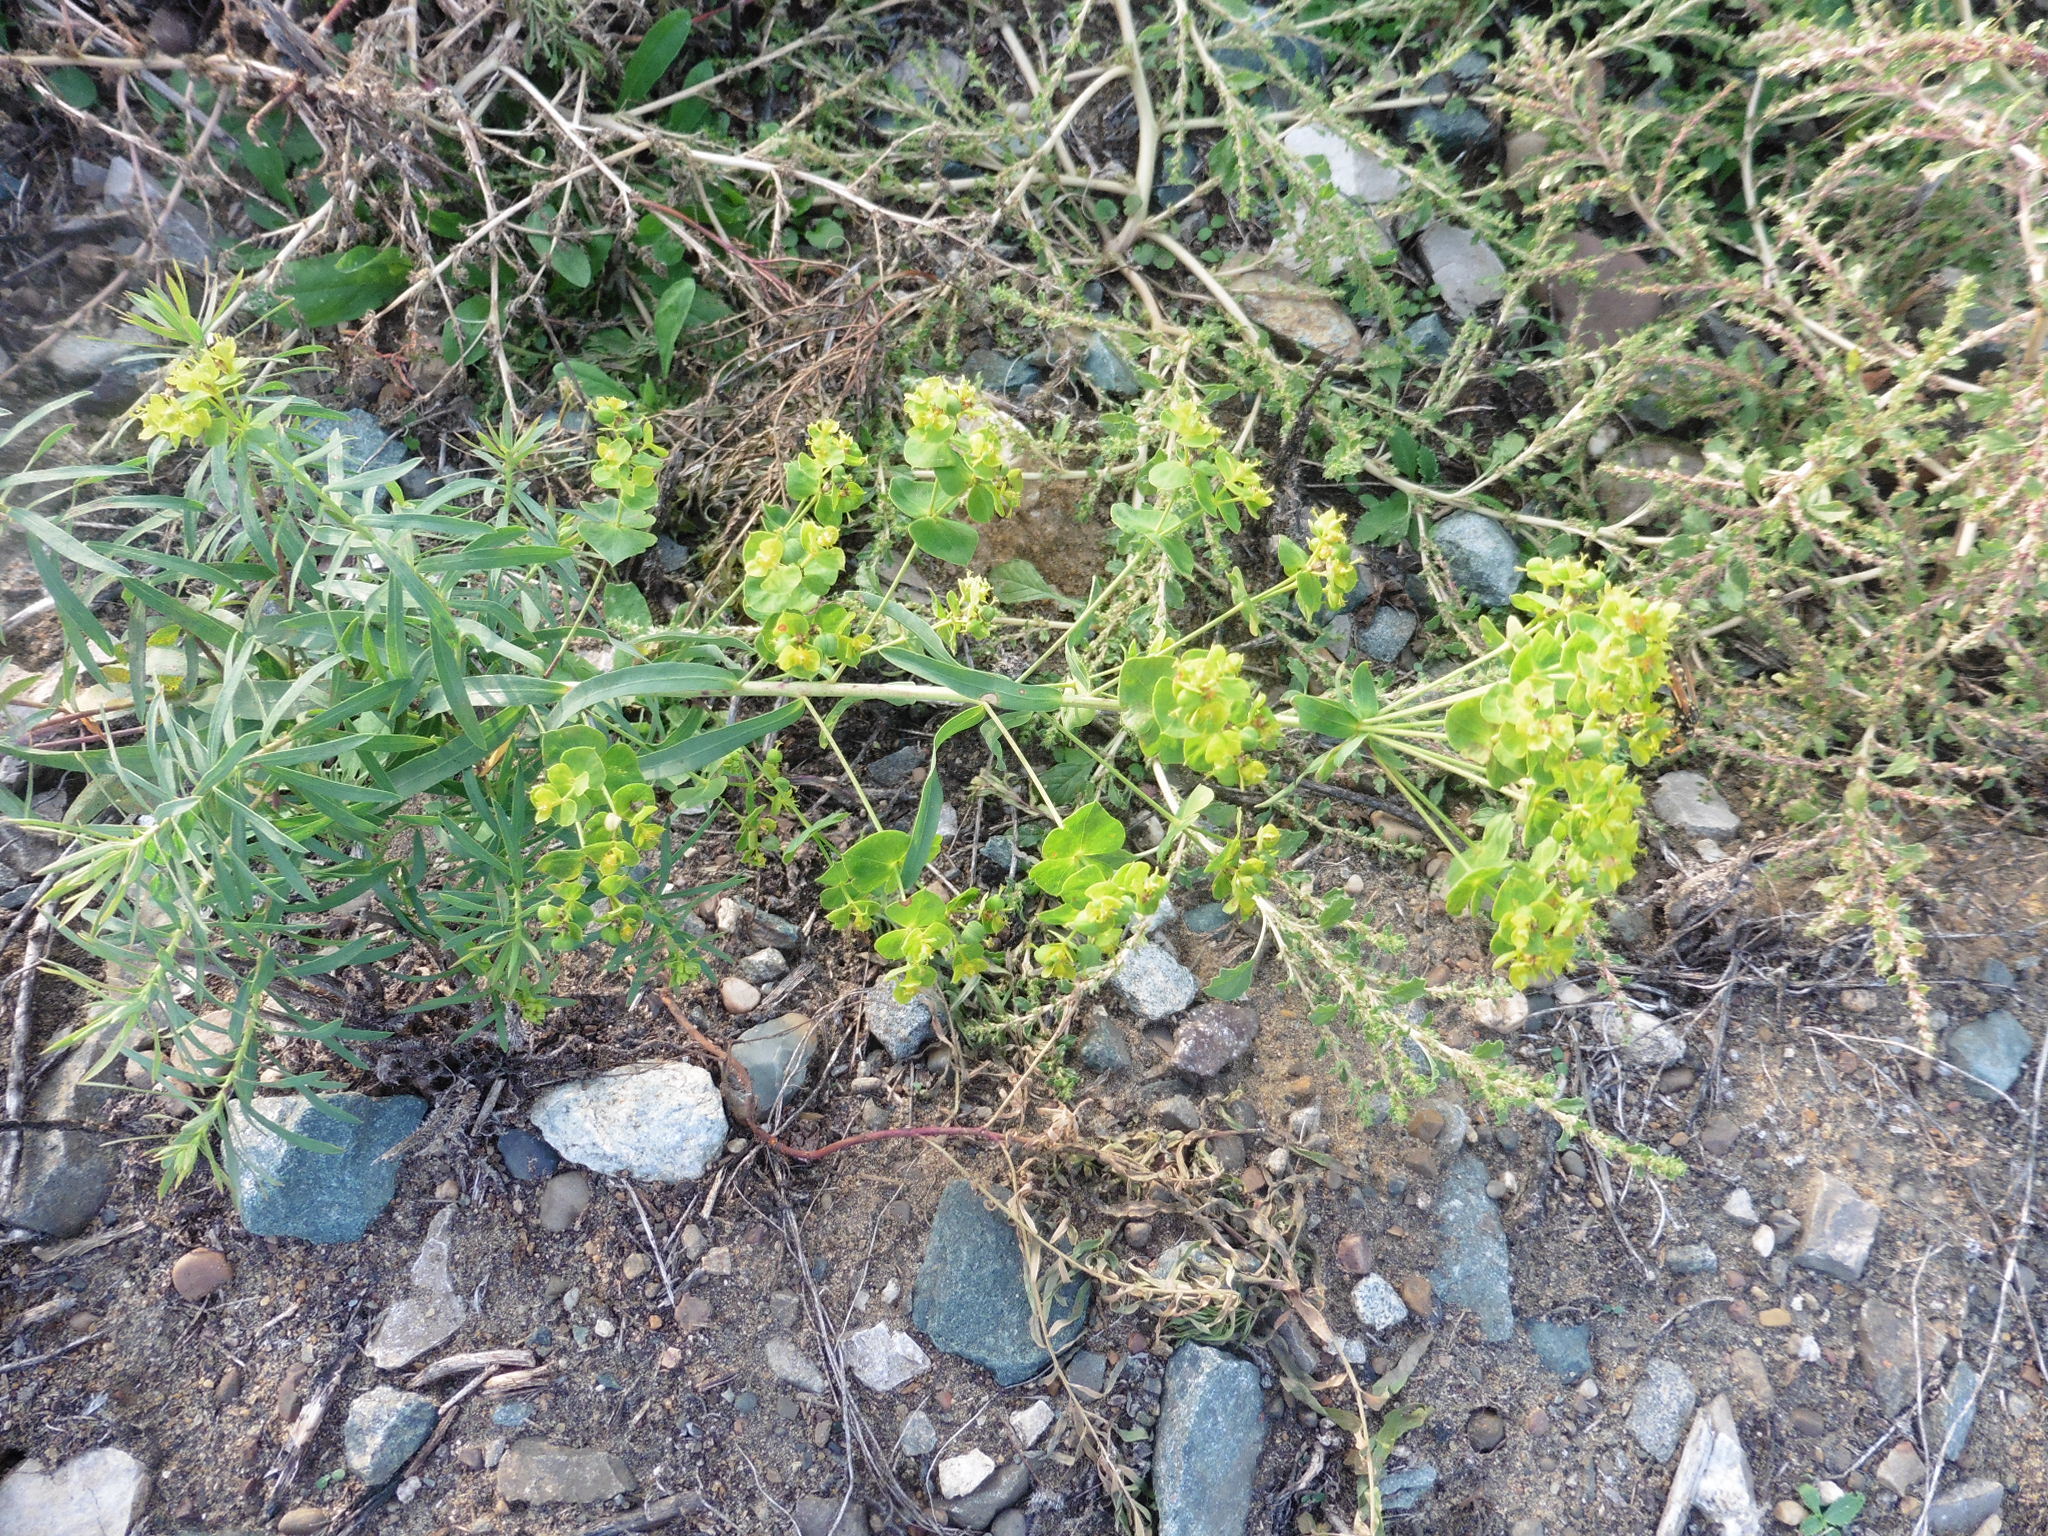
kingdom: Plantae
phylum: Tracheophyta
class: Magnoliopsida
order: Malpighiales
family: Euphorbiaceae
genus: Euphorbia
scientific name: Euphorbia virgata
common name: Leafy spurge
